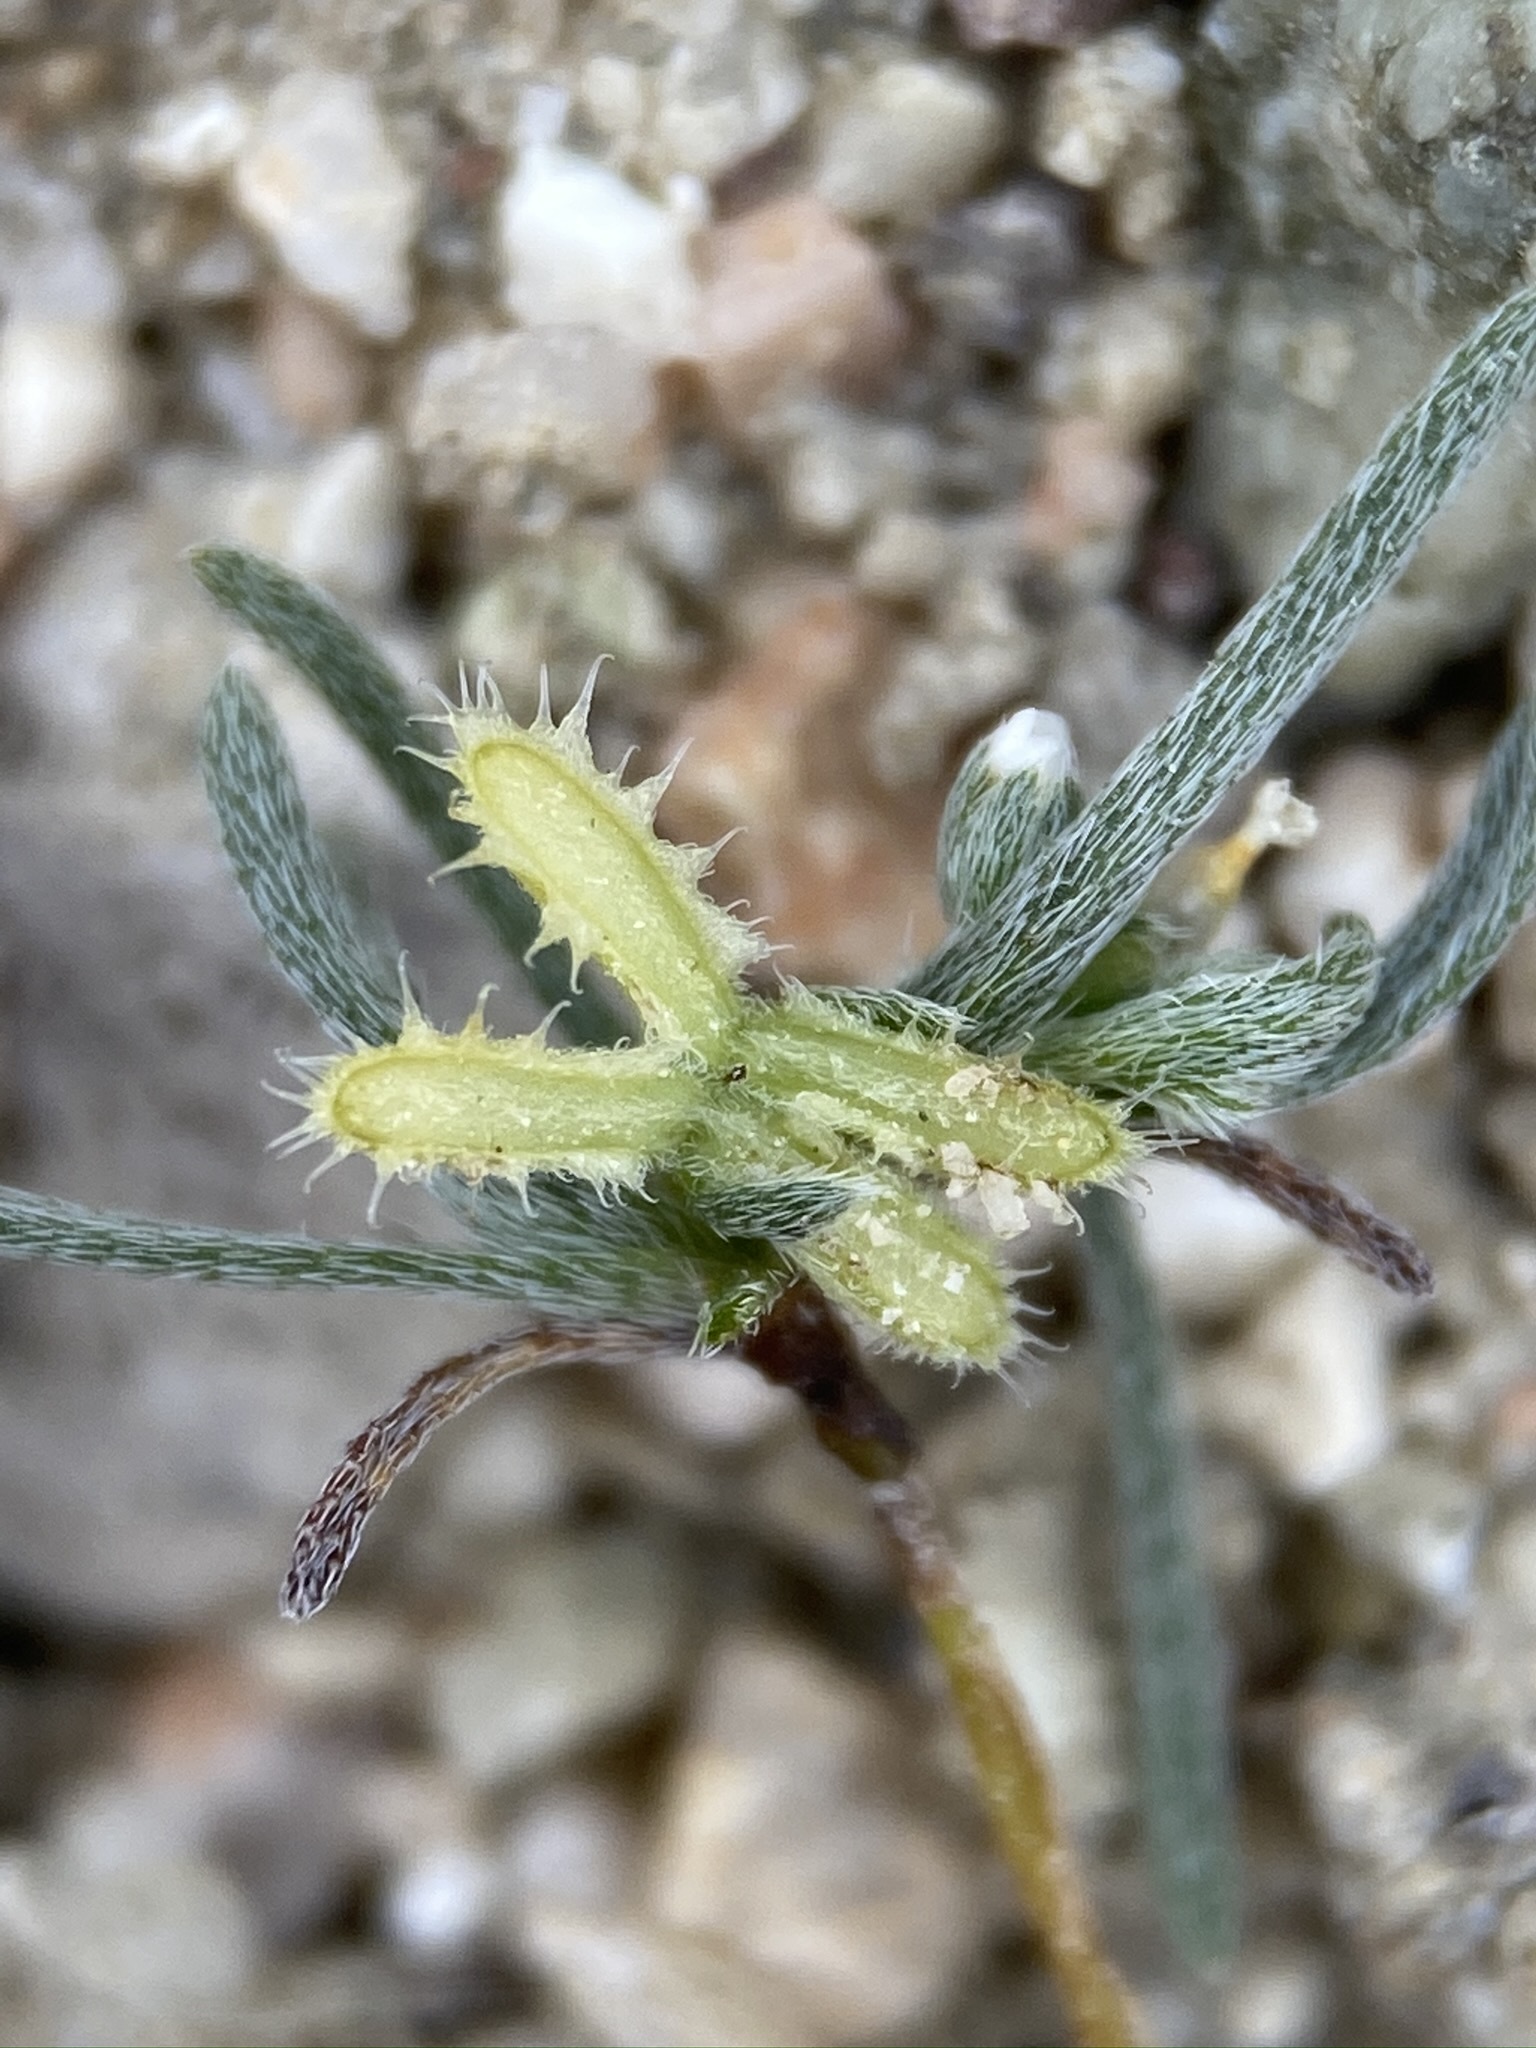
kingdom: Plantae
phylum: Tracheophyta
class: Magnoliopsida
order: Boraginales
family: Boraginaceae
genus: Pectocarya
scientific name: Pectocarya linearis
